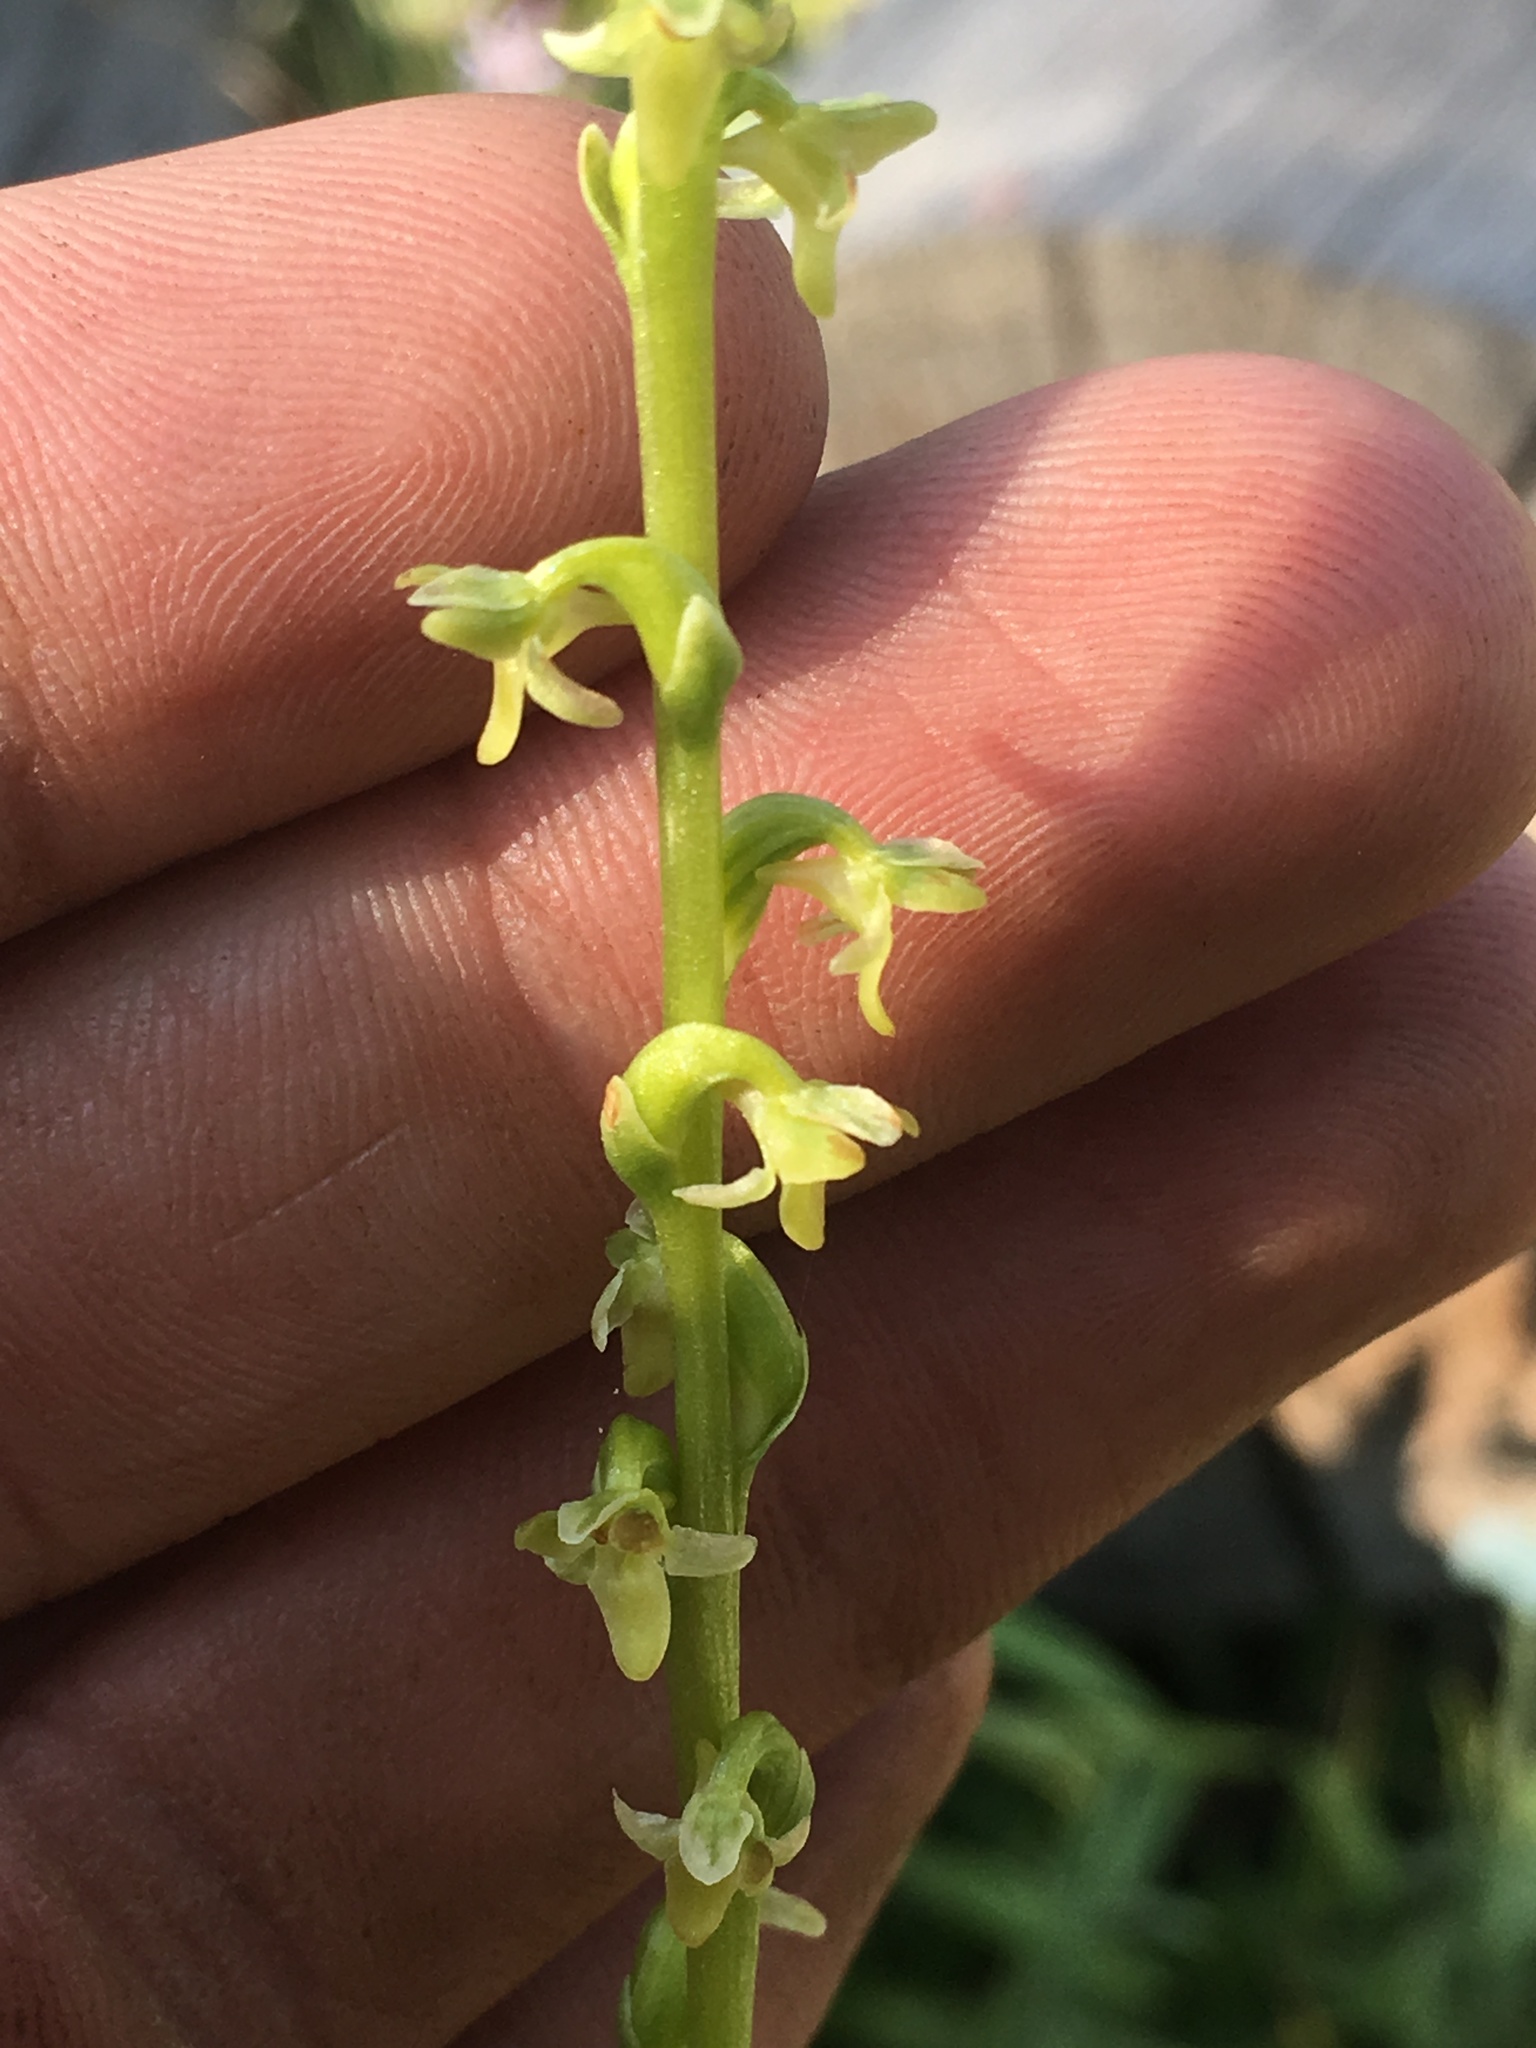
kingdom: Plantae
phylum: Tracheophyta
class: Liliopsida
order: Asparagales
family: Orchidaceae
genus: Platanthera
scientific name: Platanthera unalascensis
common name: Alaska bog orchid
